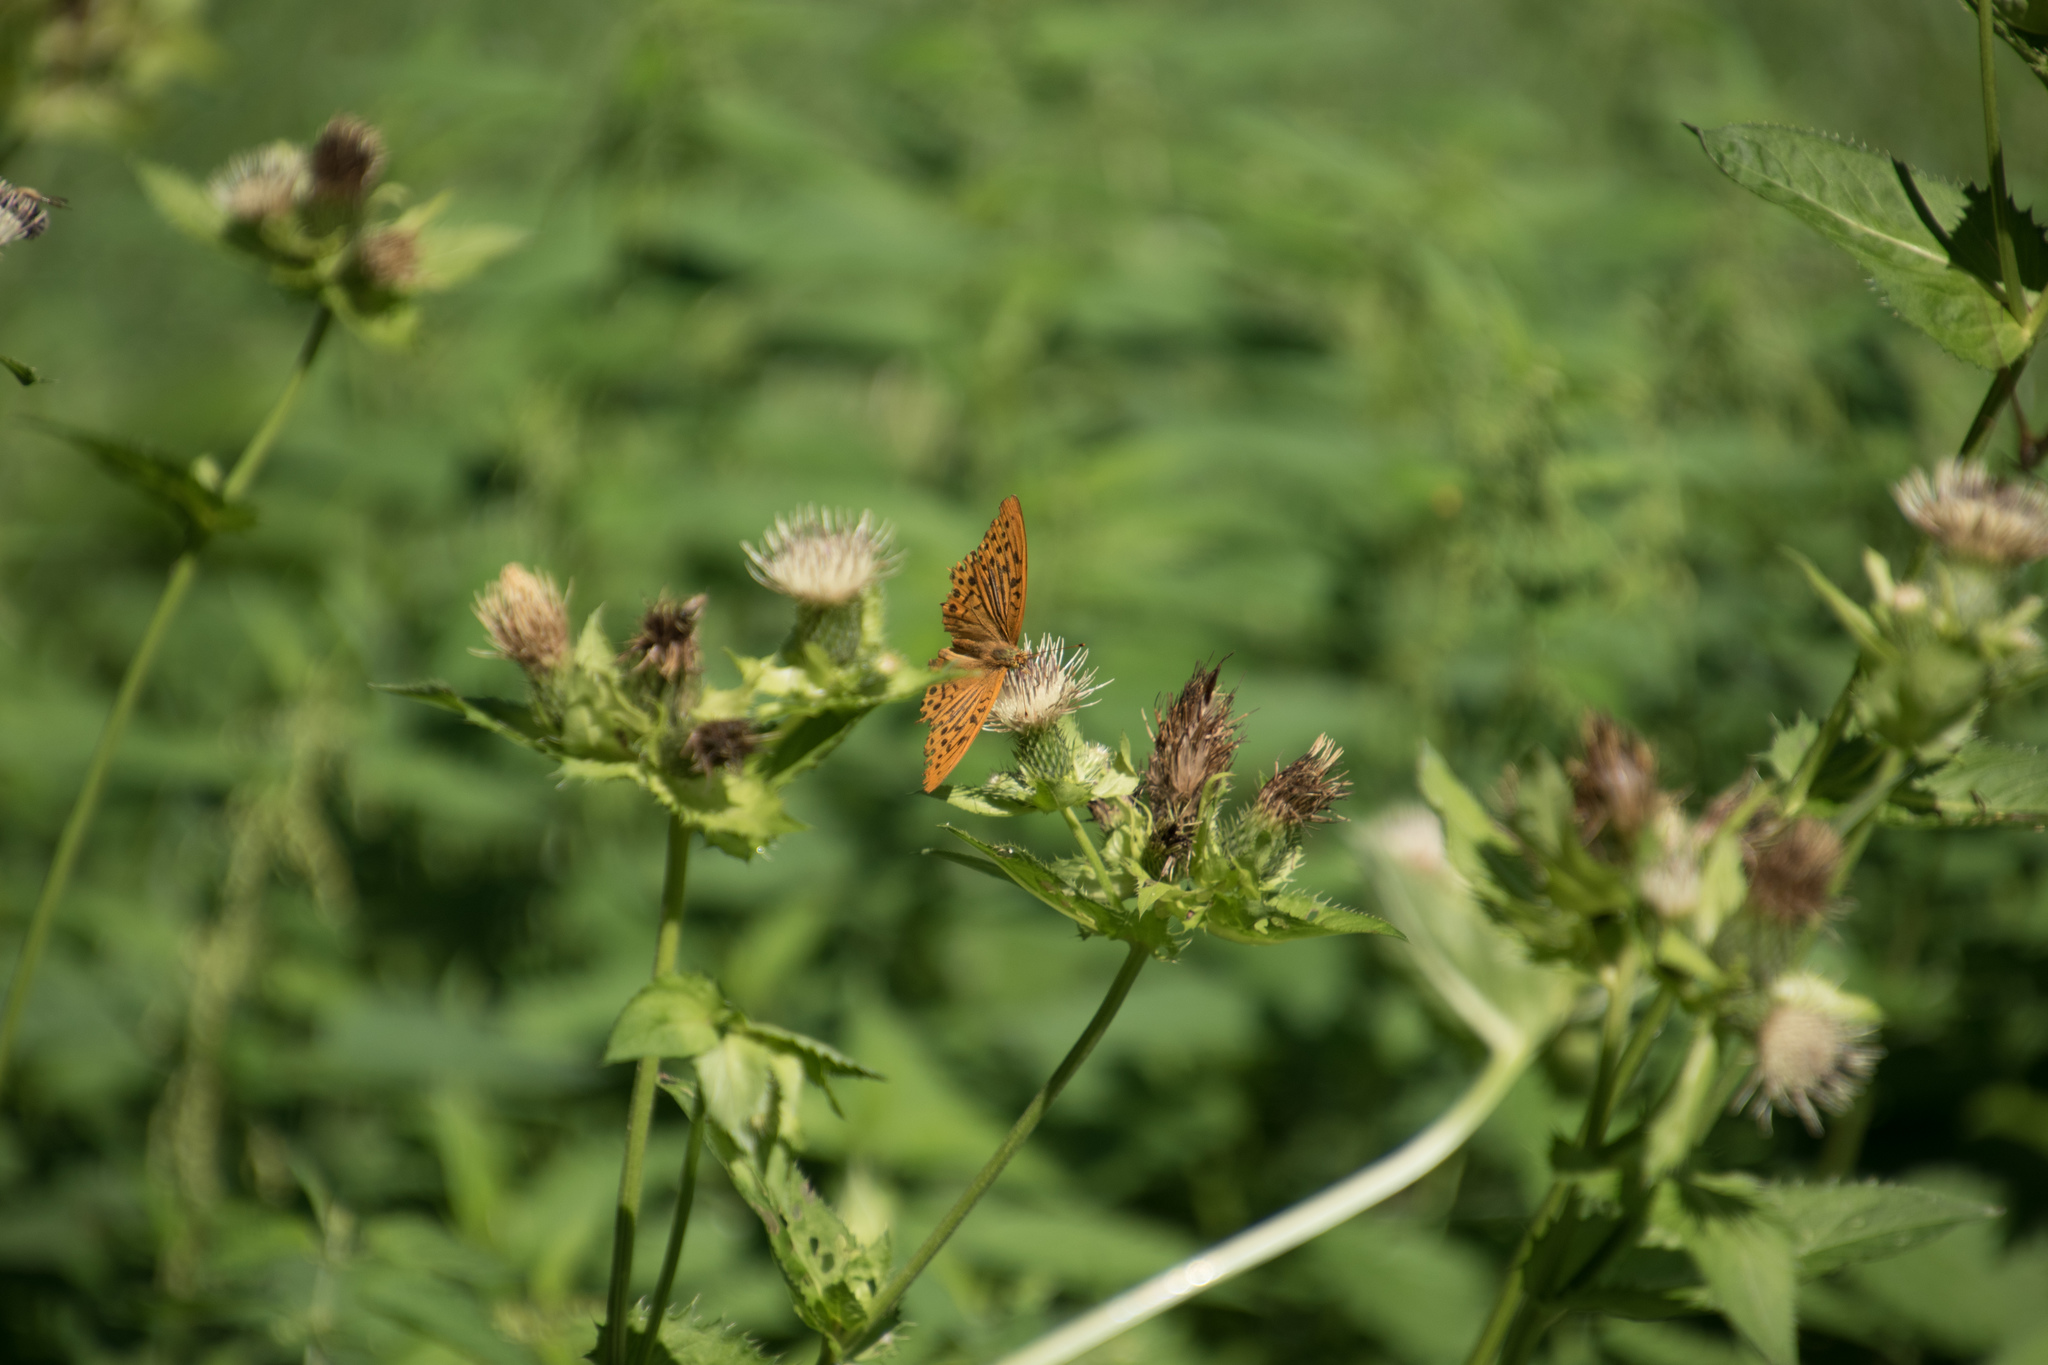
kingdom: Animalia
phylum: Arthropoda
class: Insecta
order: Lepidoptera
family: Nymphalidae
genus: Argynnis
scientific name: Argynnis paphia
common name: Silver-washed fritillary
